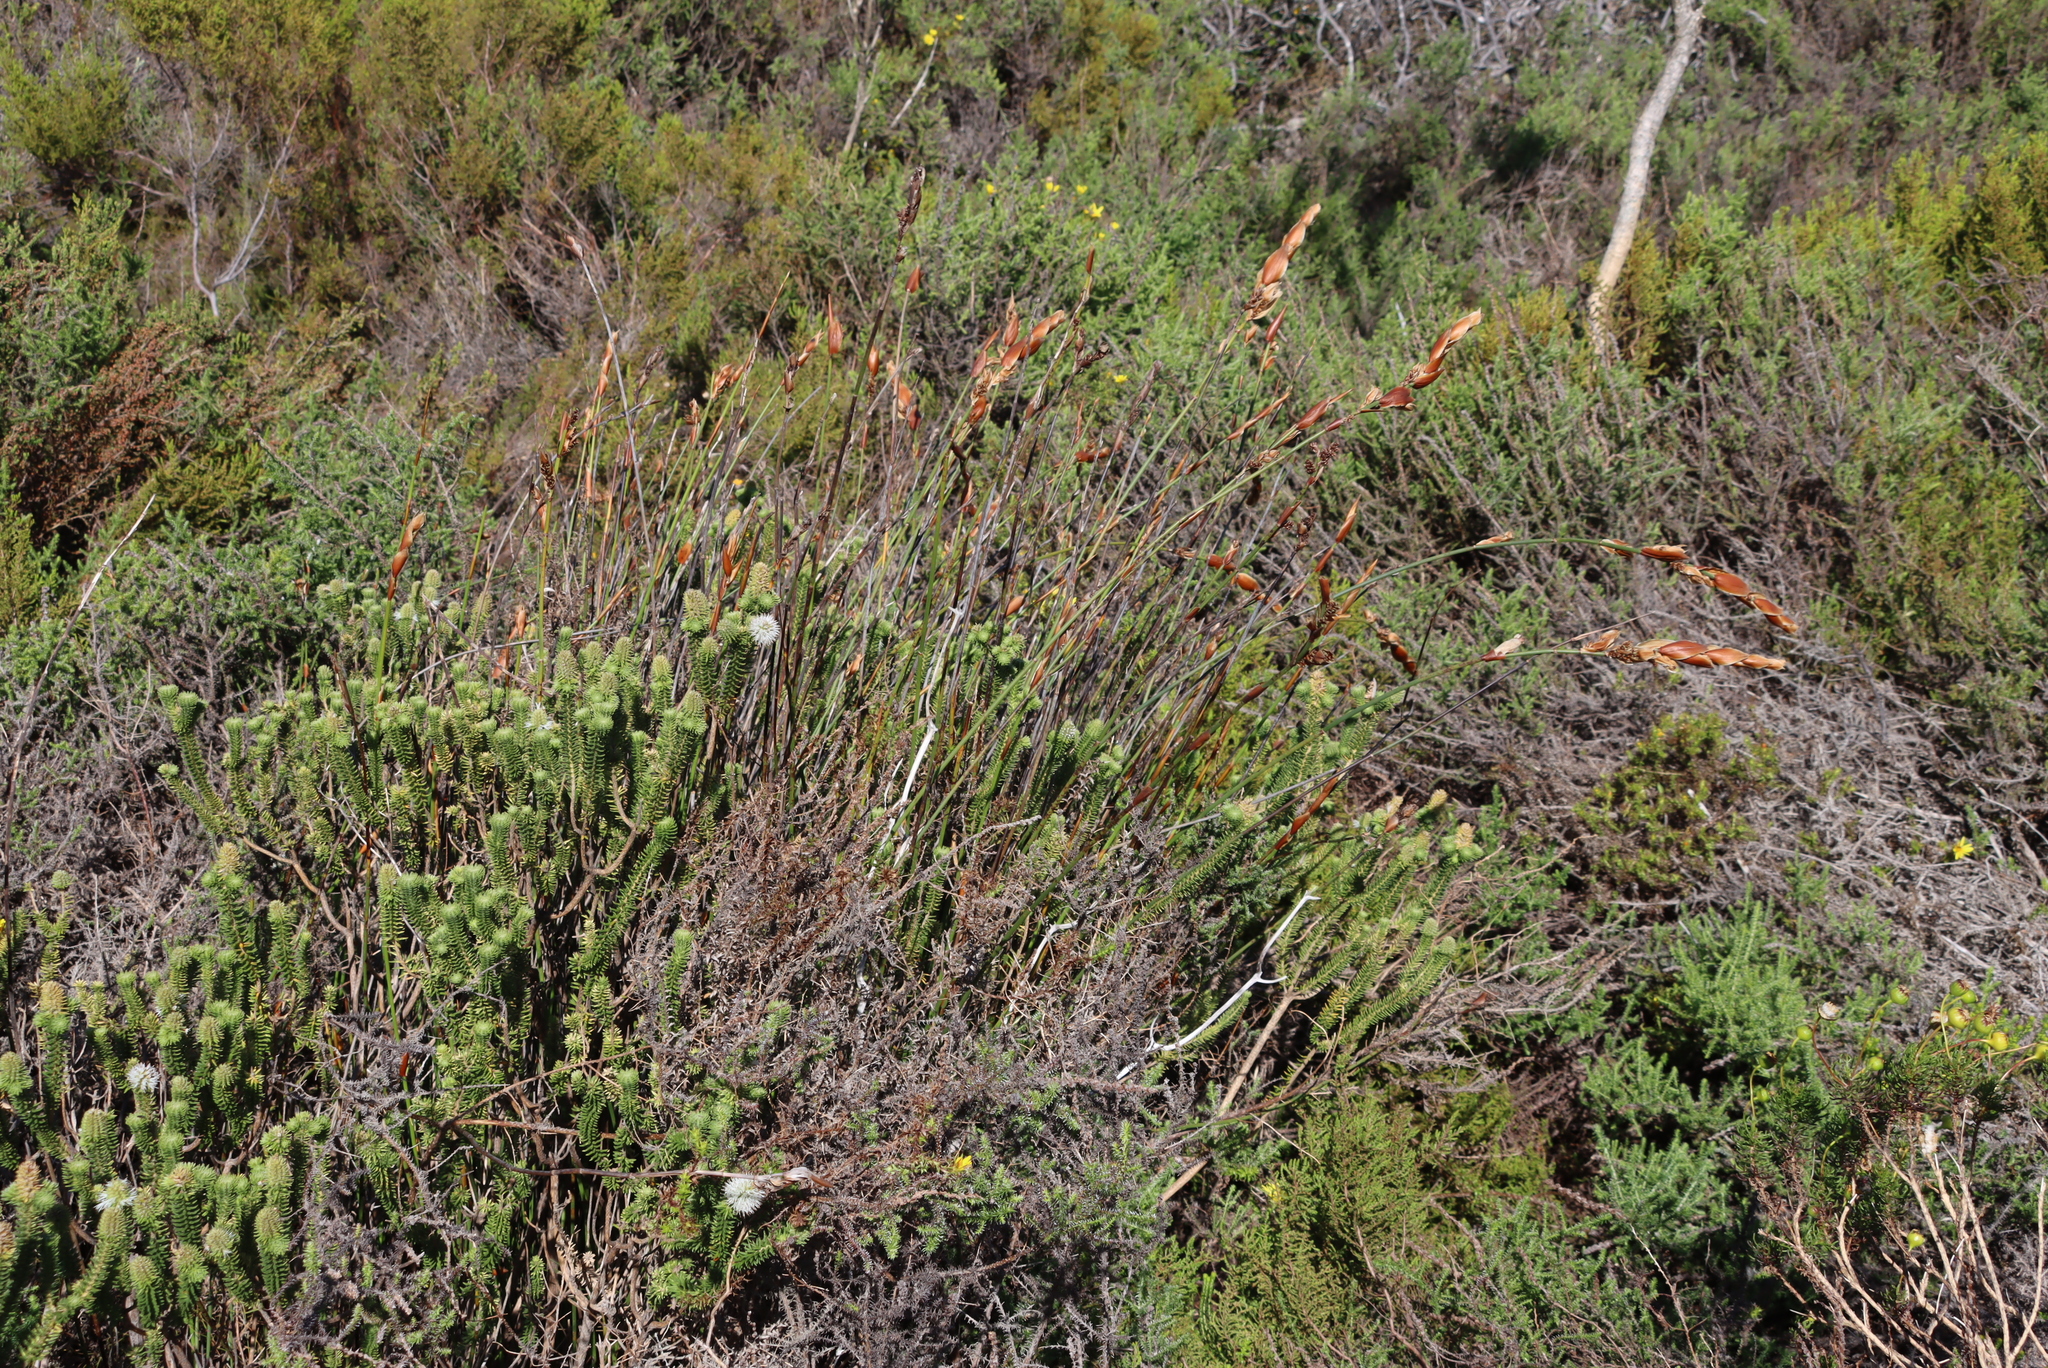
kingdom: Plantae
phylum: Tracheophyta
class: Magnoliopsida
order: Lamiales
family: Stilbaceae
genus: Stilbe
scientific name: Stilbe vestita
